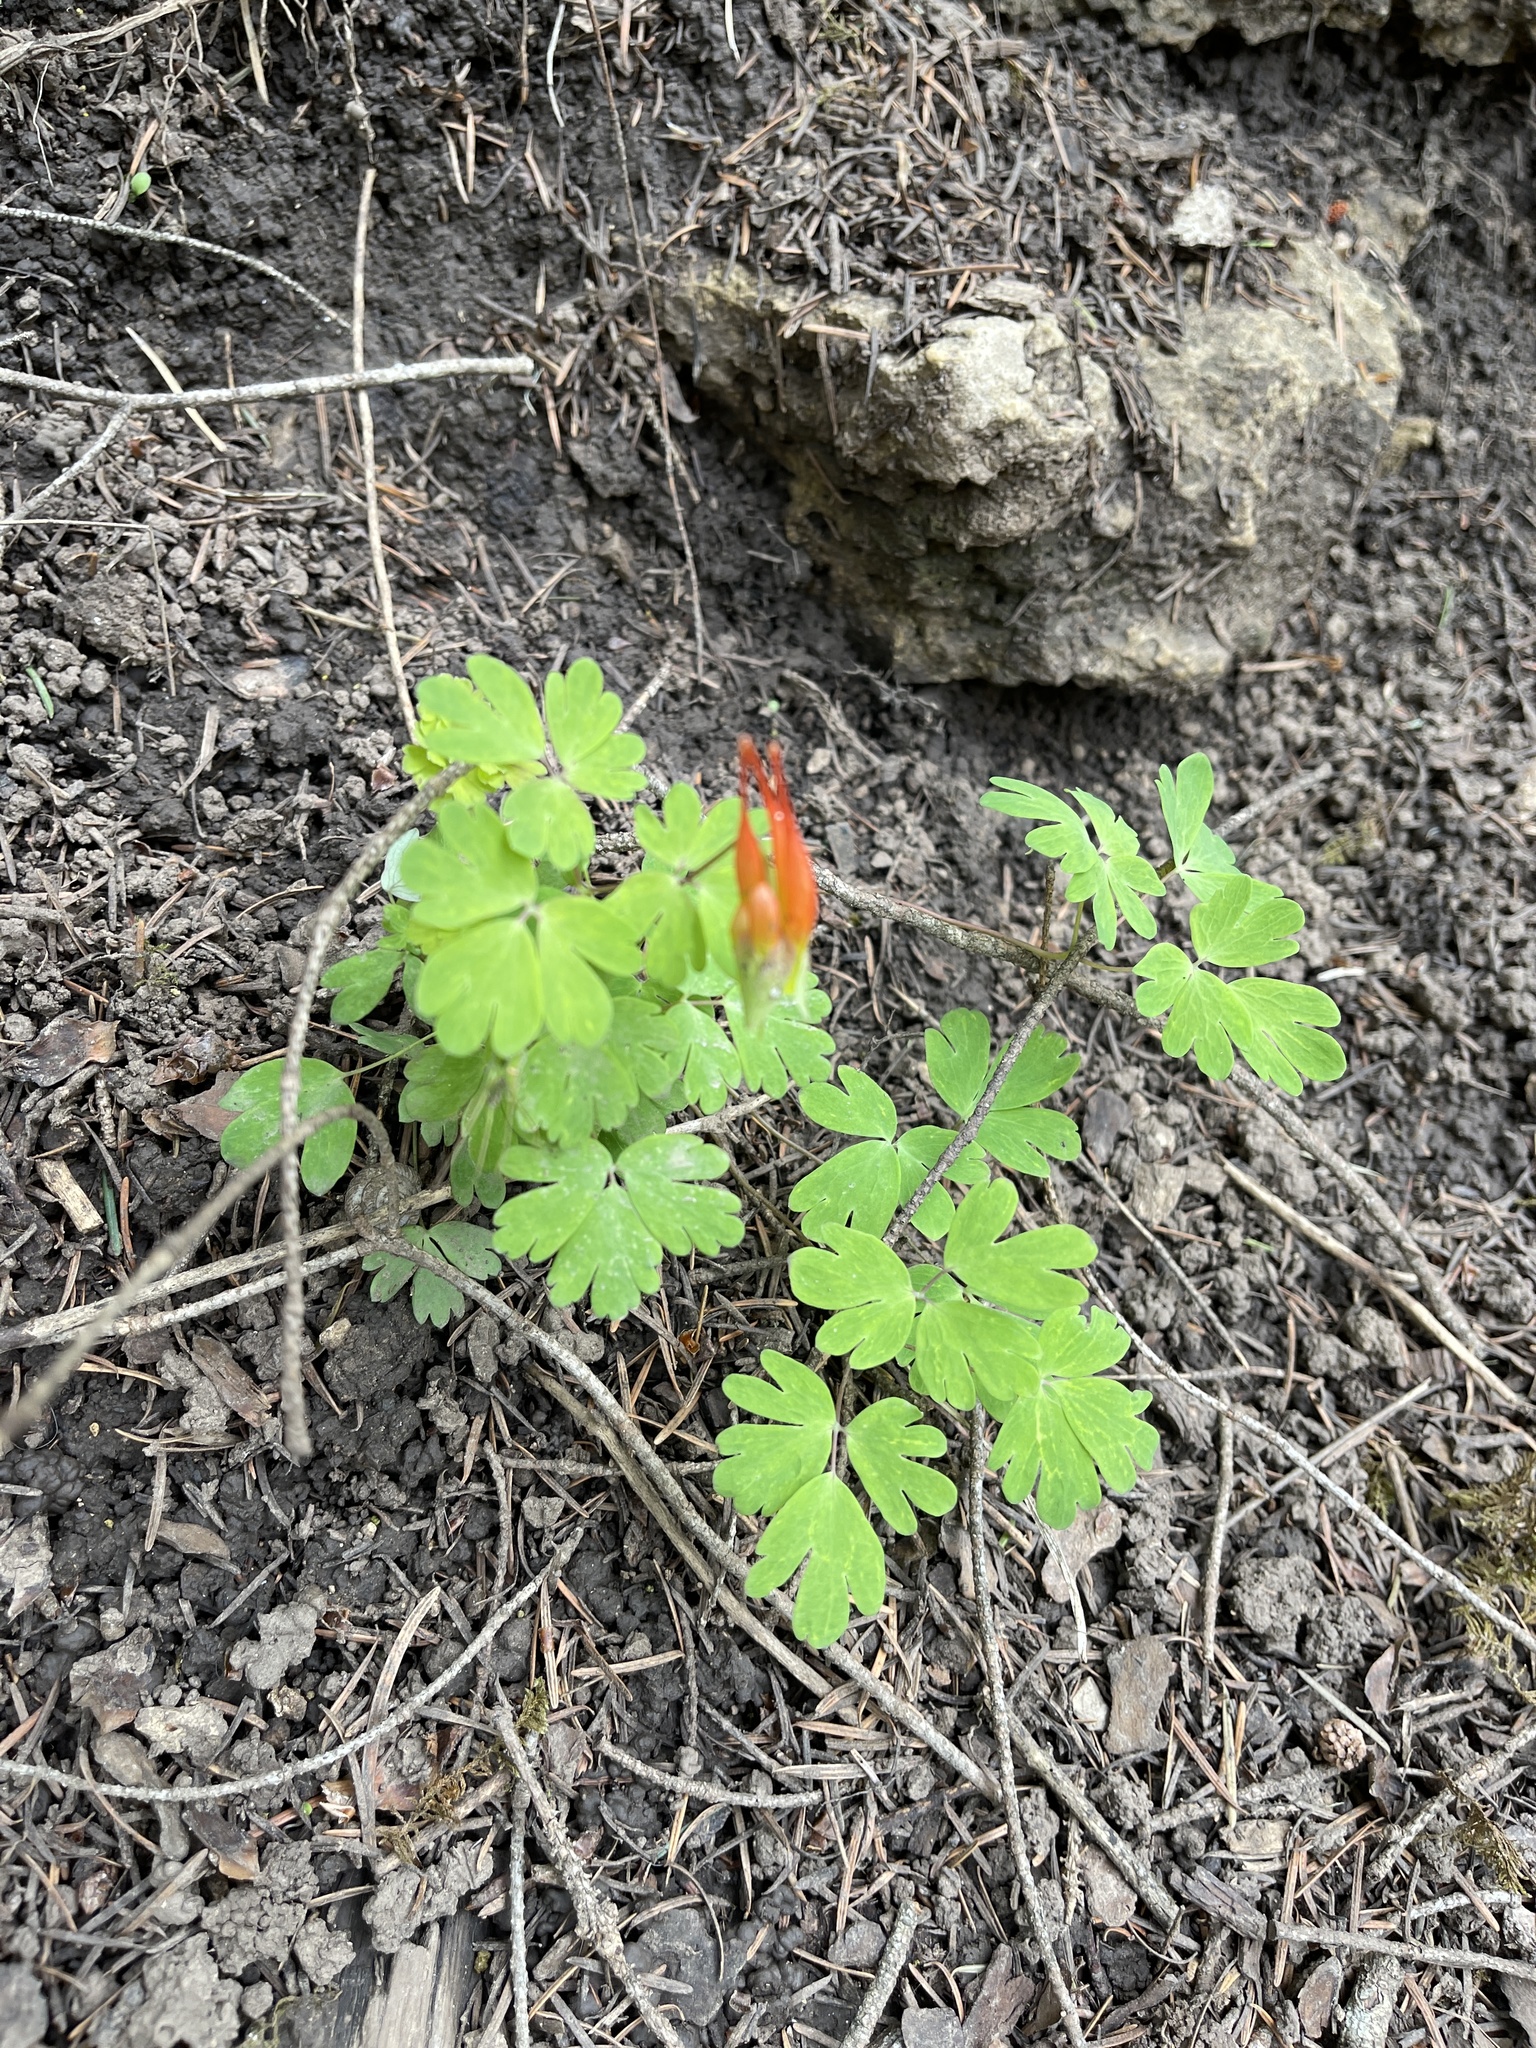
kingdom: Plantae
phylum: Tracheophyta
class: Magnoliopsida
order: Ranunculales
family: Ranunculaceae
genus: Aquilegia
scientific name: Aquilegia elegantula
